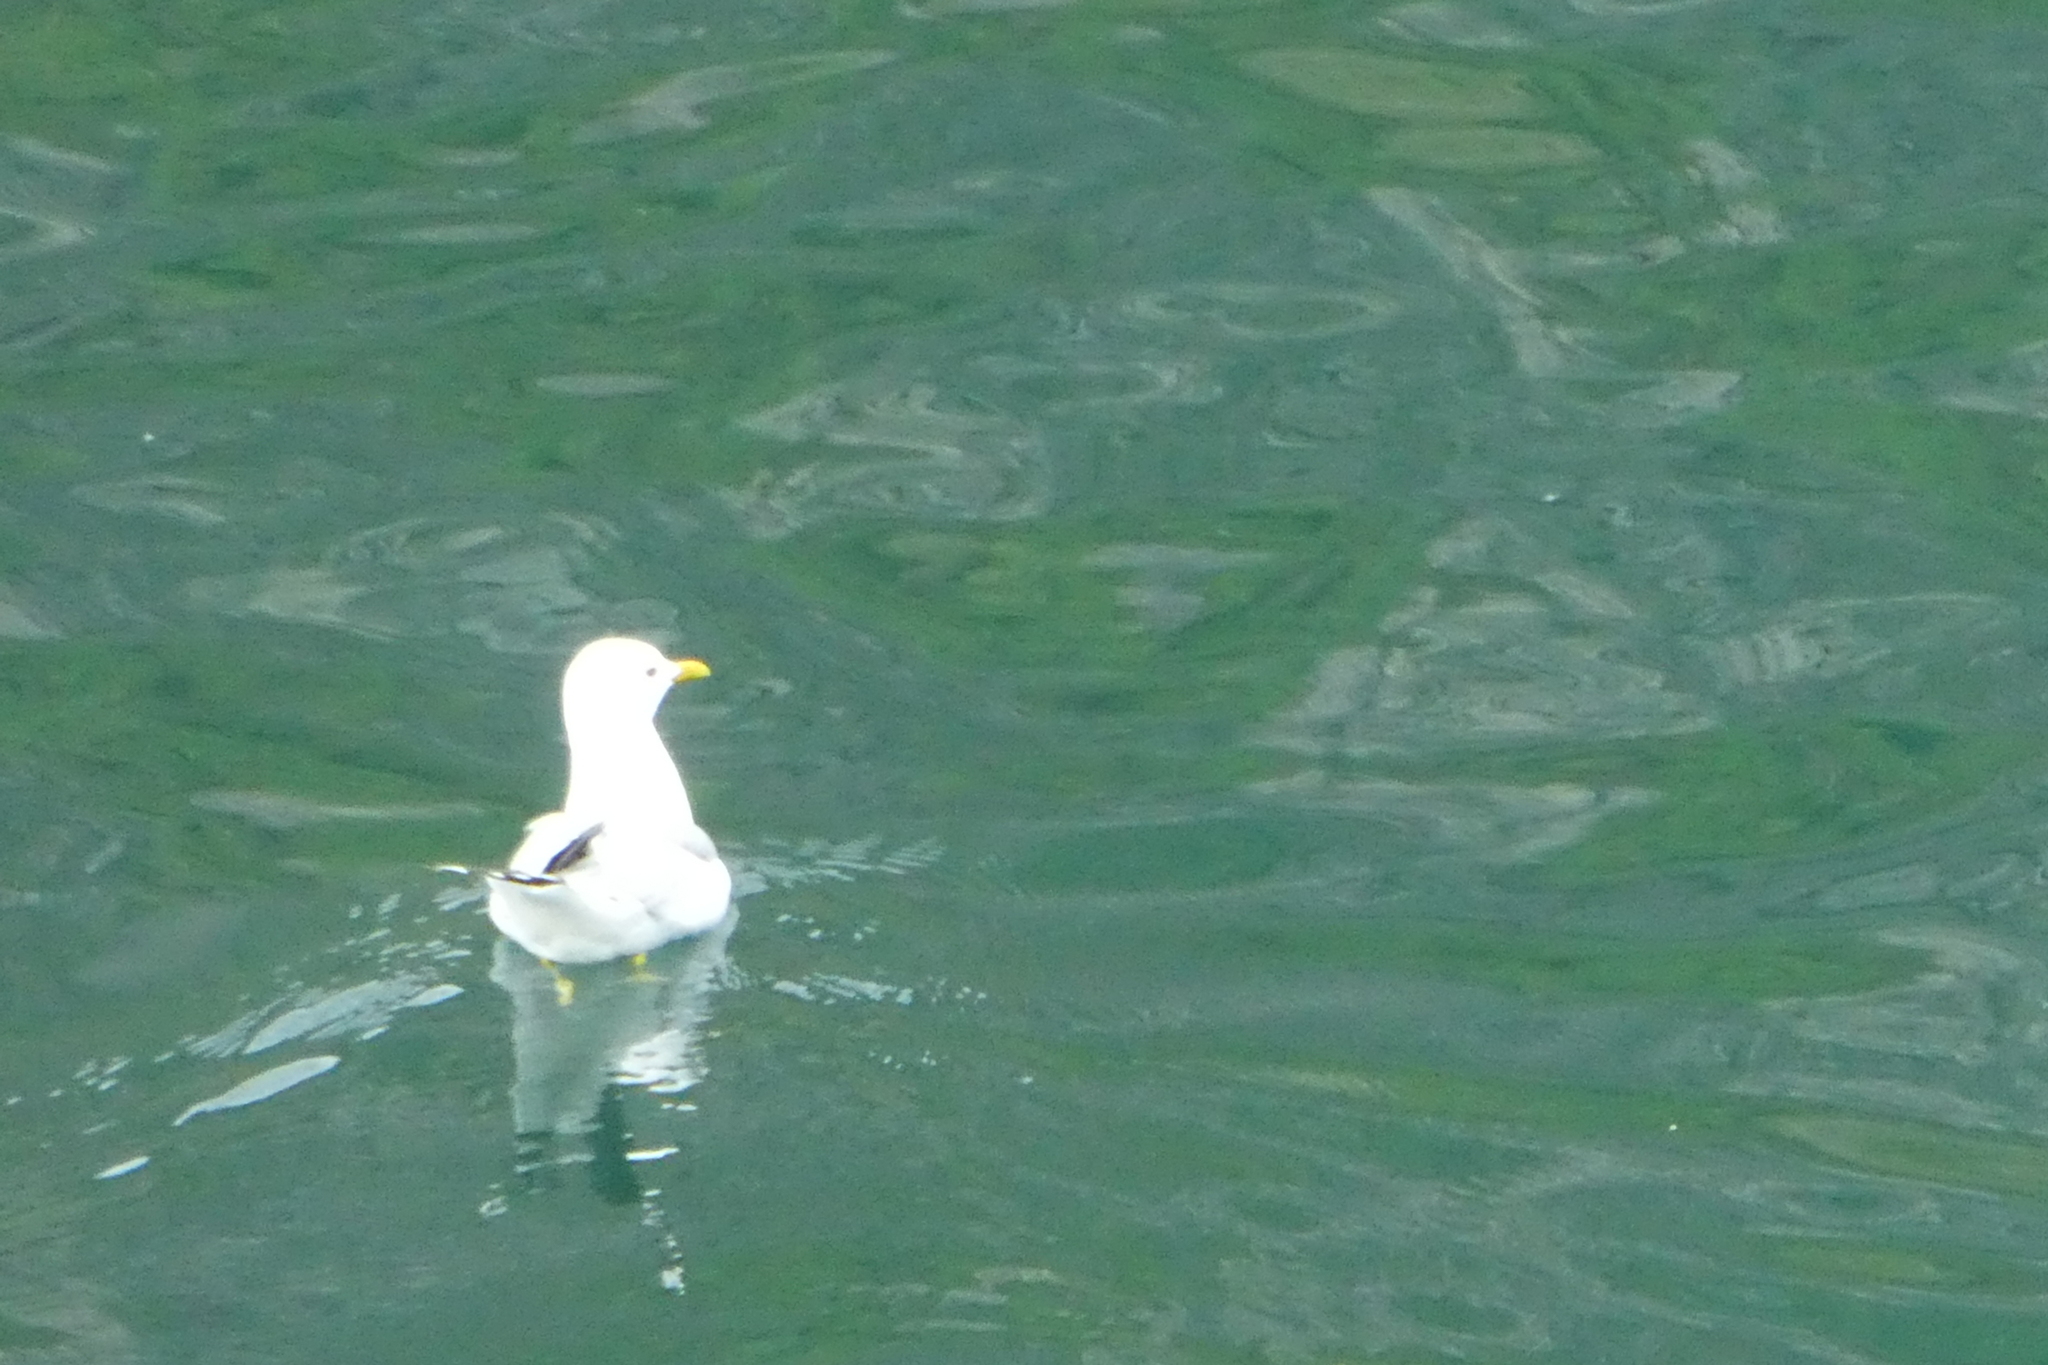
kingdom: Animalia
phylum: Chordata
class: Aves
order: Charadriiformes
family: Laridae
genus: Larus
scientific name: Larus canus
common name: Mew gull
